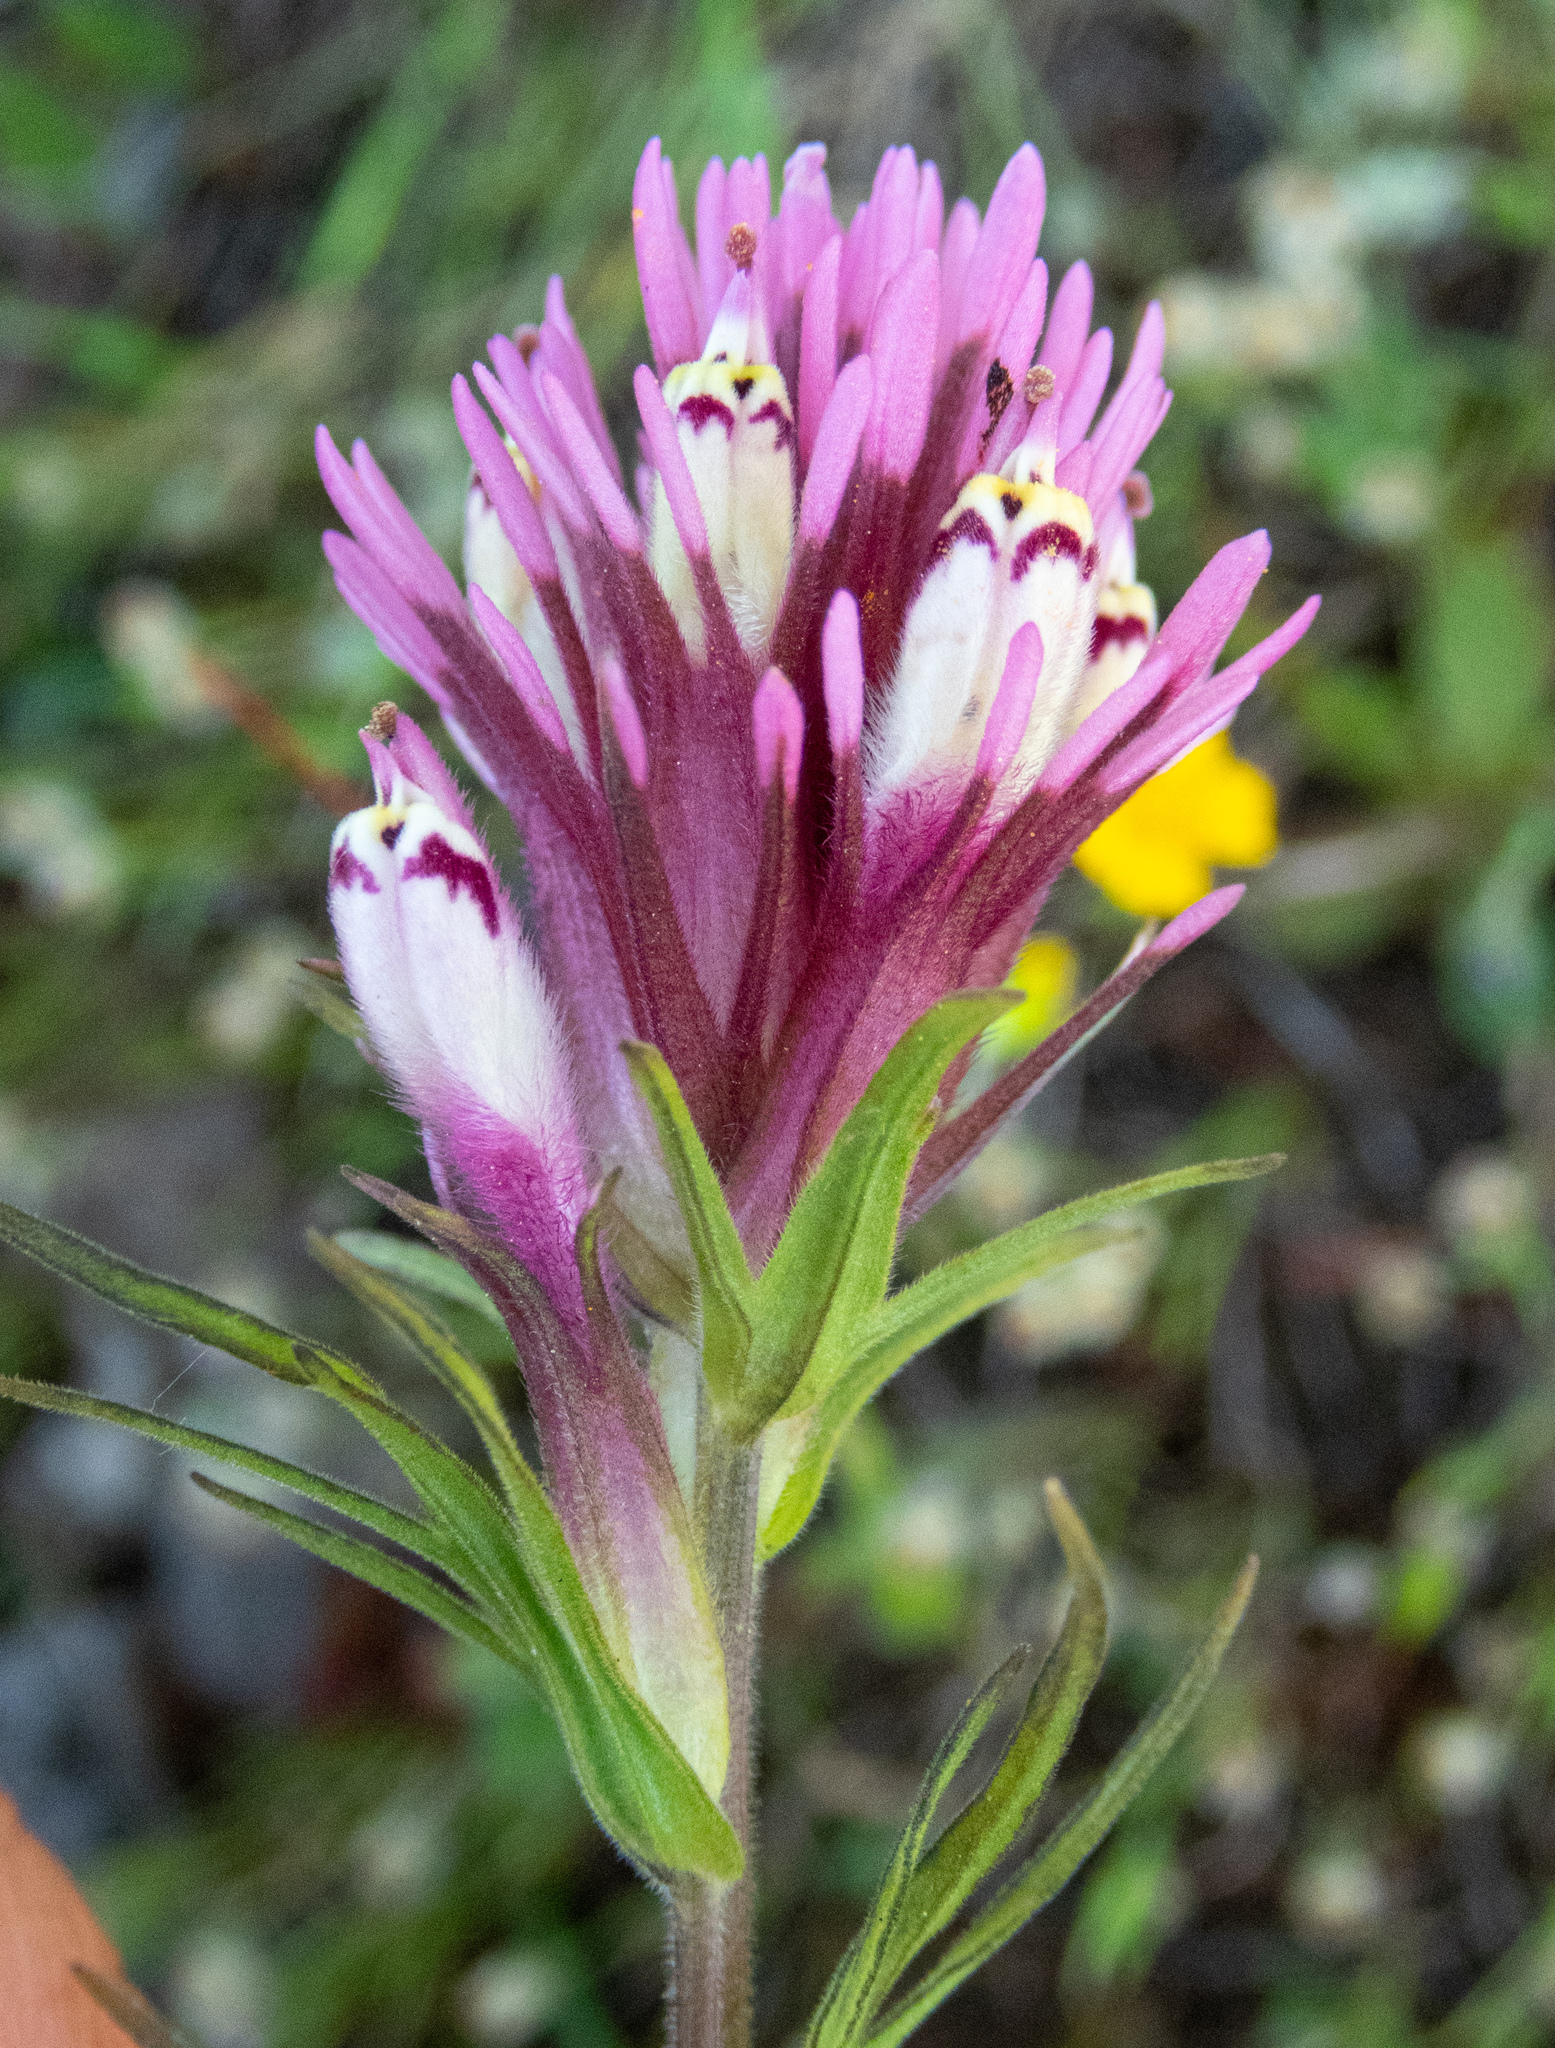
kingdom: Plantae
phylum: Tracheophyta
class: Magnoliopsida
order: Lamiales
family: Orobanchaceae
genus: Castilleja
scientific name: Castilleja densiflora
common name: Dense-flower indian paintbrush
